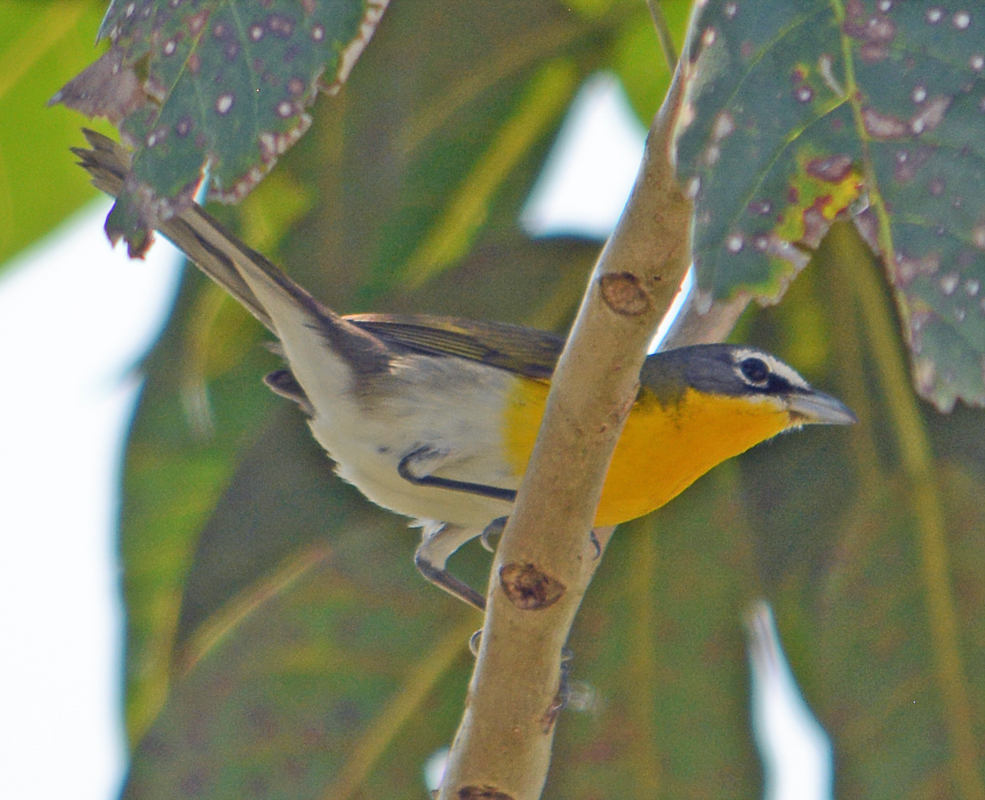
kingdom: Animalia
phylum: Chordata
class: Aves
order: Passeriformes
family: Parulidae
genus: Icteria
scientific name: Icteria virens
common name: Yellow-breasted chat
